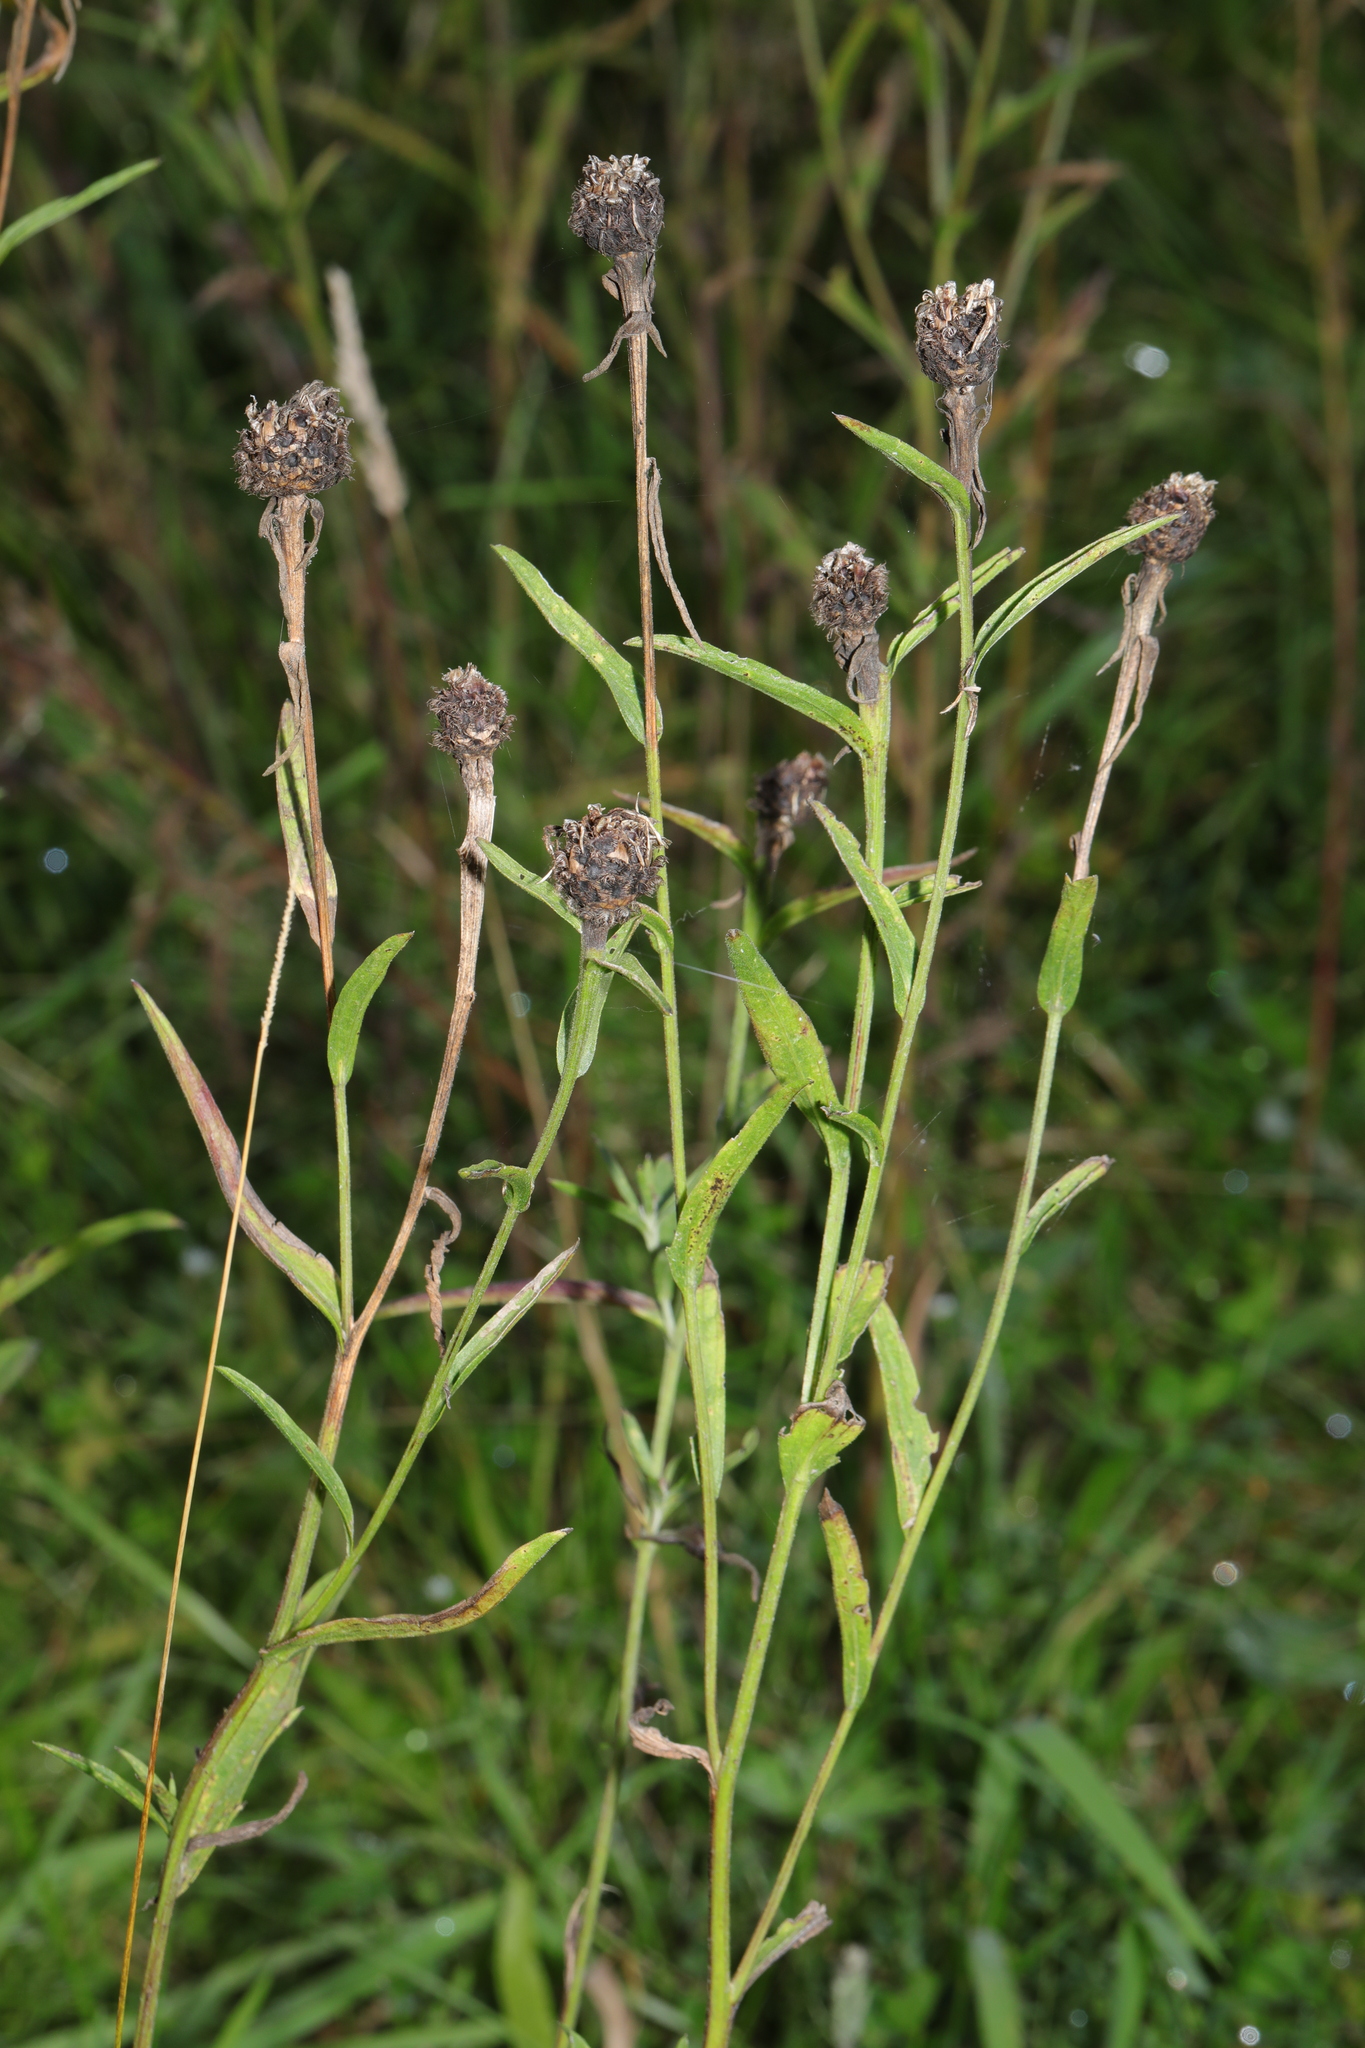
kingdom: Plantae
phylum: Tracheophyta
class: Magnoliopsida
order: Asterales
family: Asteraceae
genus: Centaurea
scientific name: Centaurea nigra
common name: Lesser knapweed
